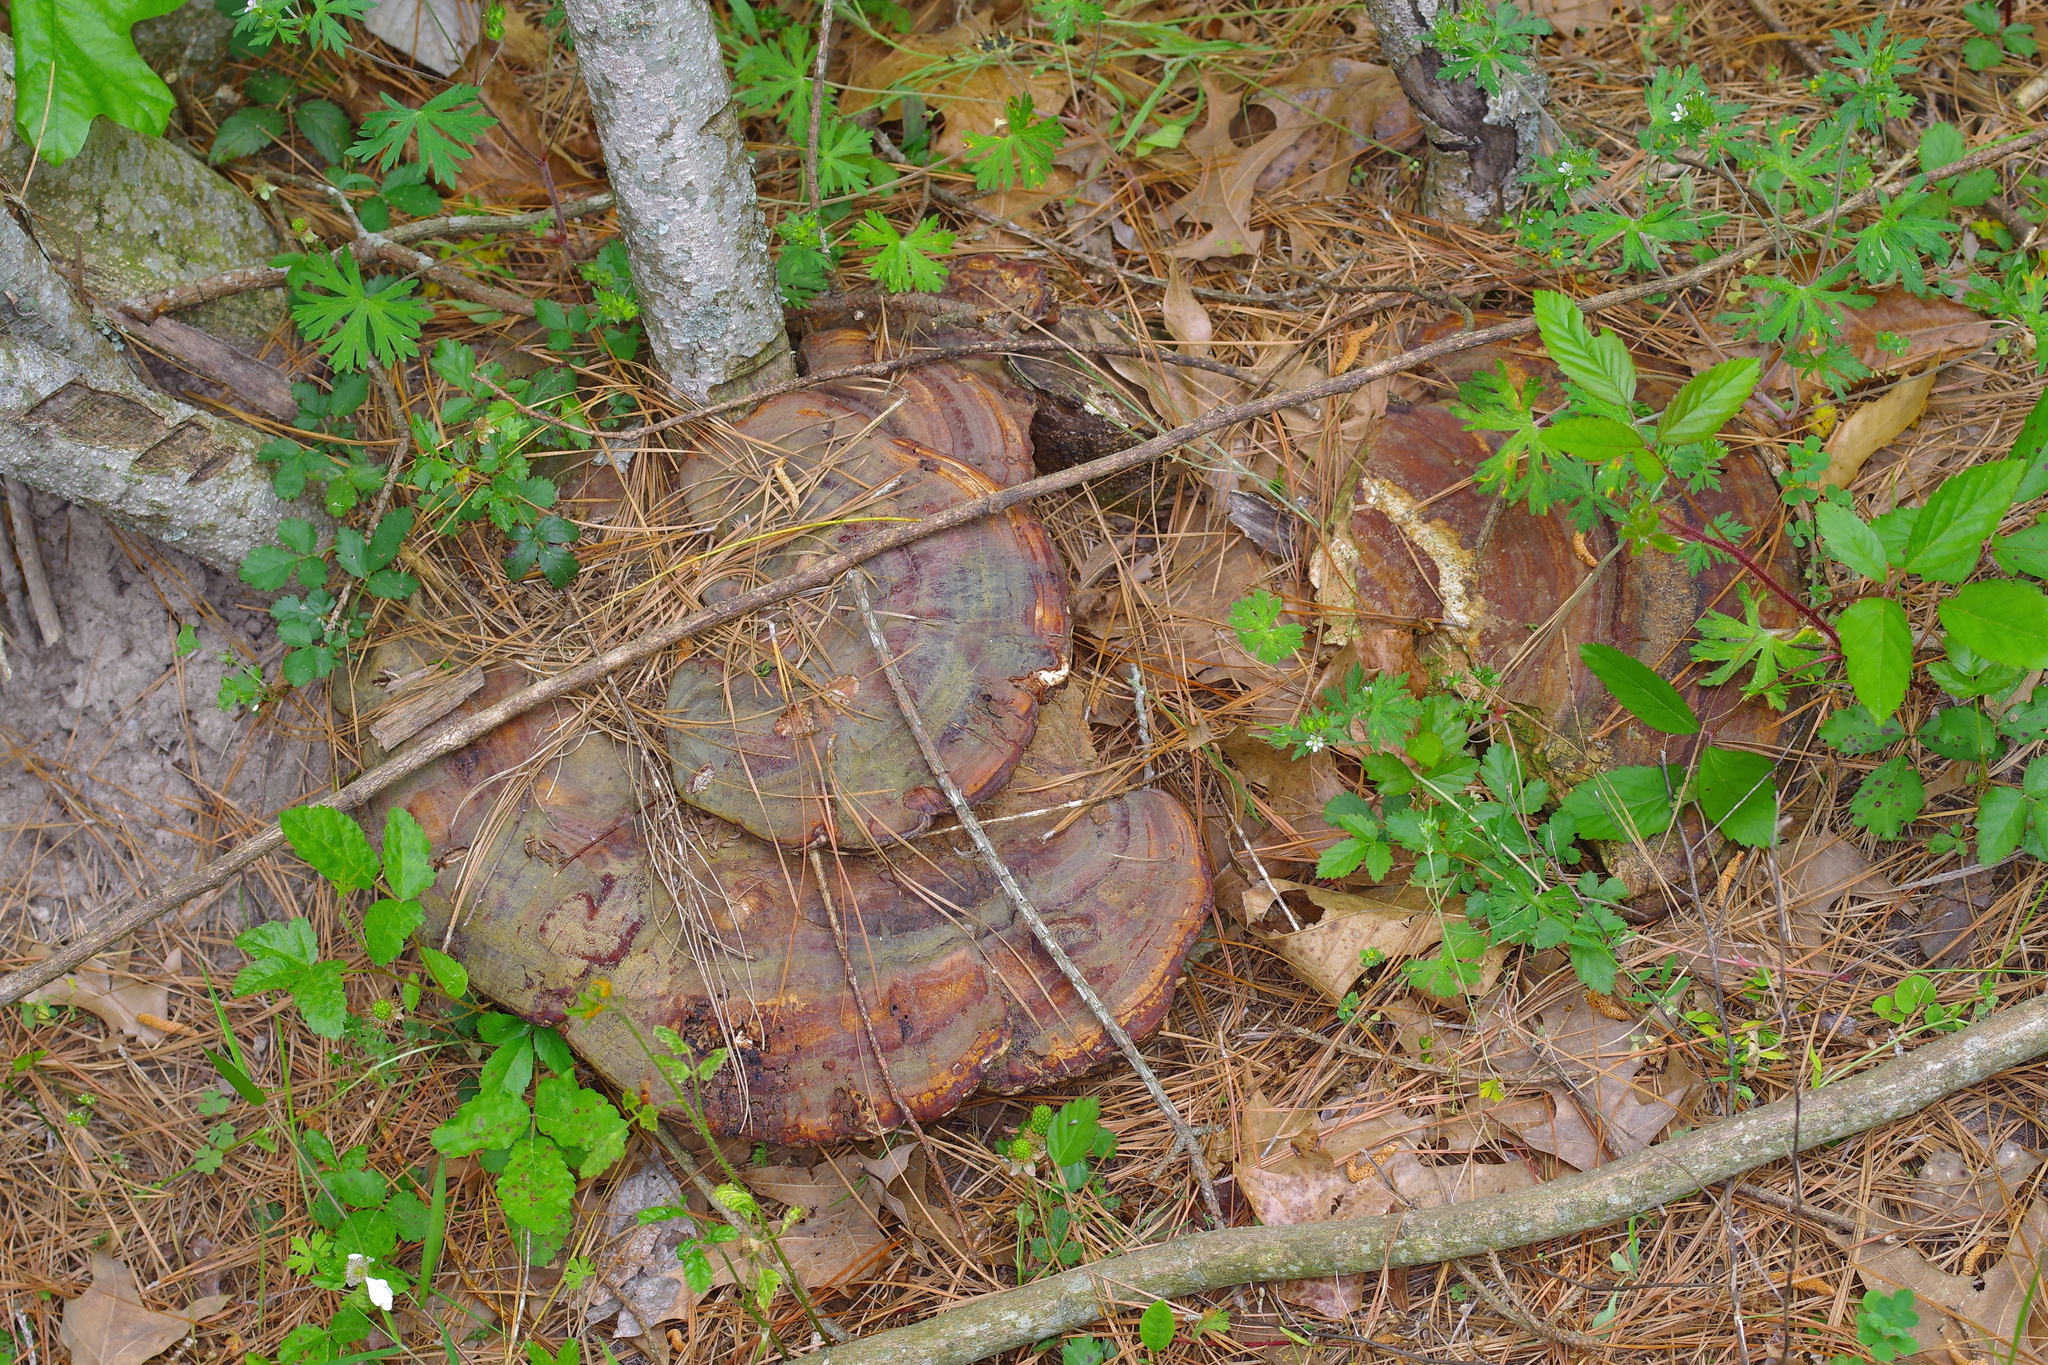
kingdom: Fungi
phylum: Basidiomycota
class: Agaricomycetes
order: Polyporales
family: Polyporaceae
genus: Ganoderma
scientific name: Ganoderma resinaceum
